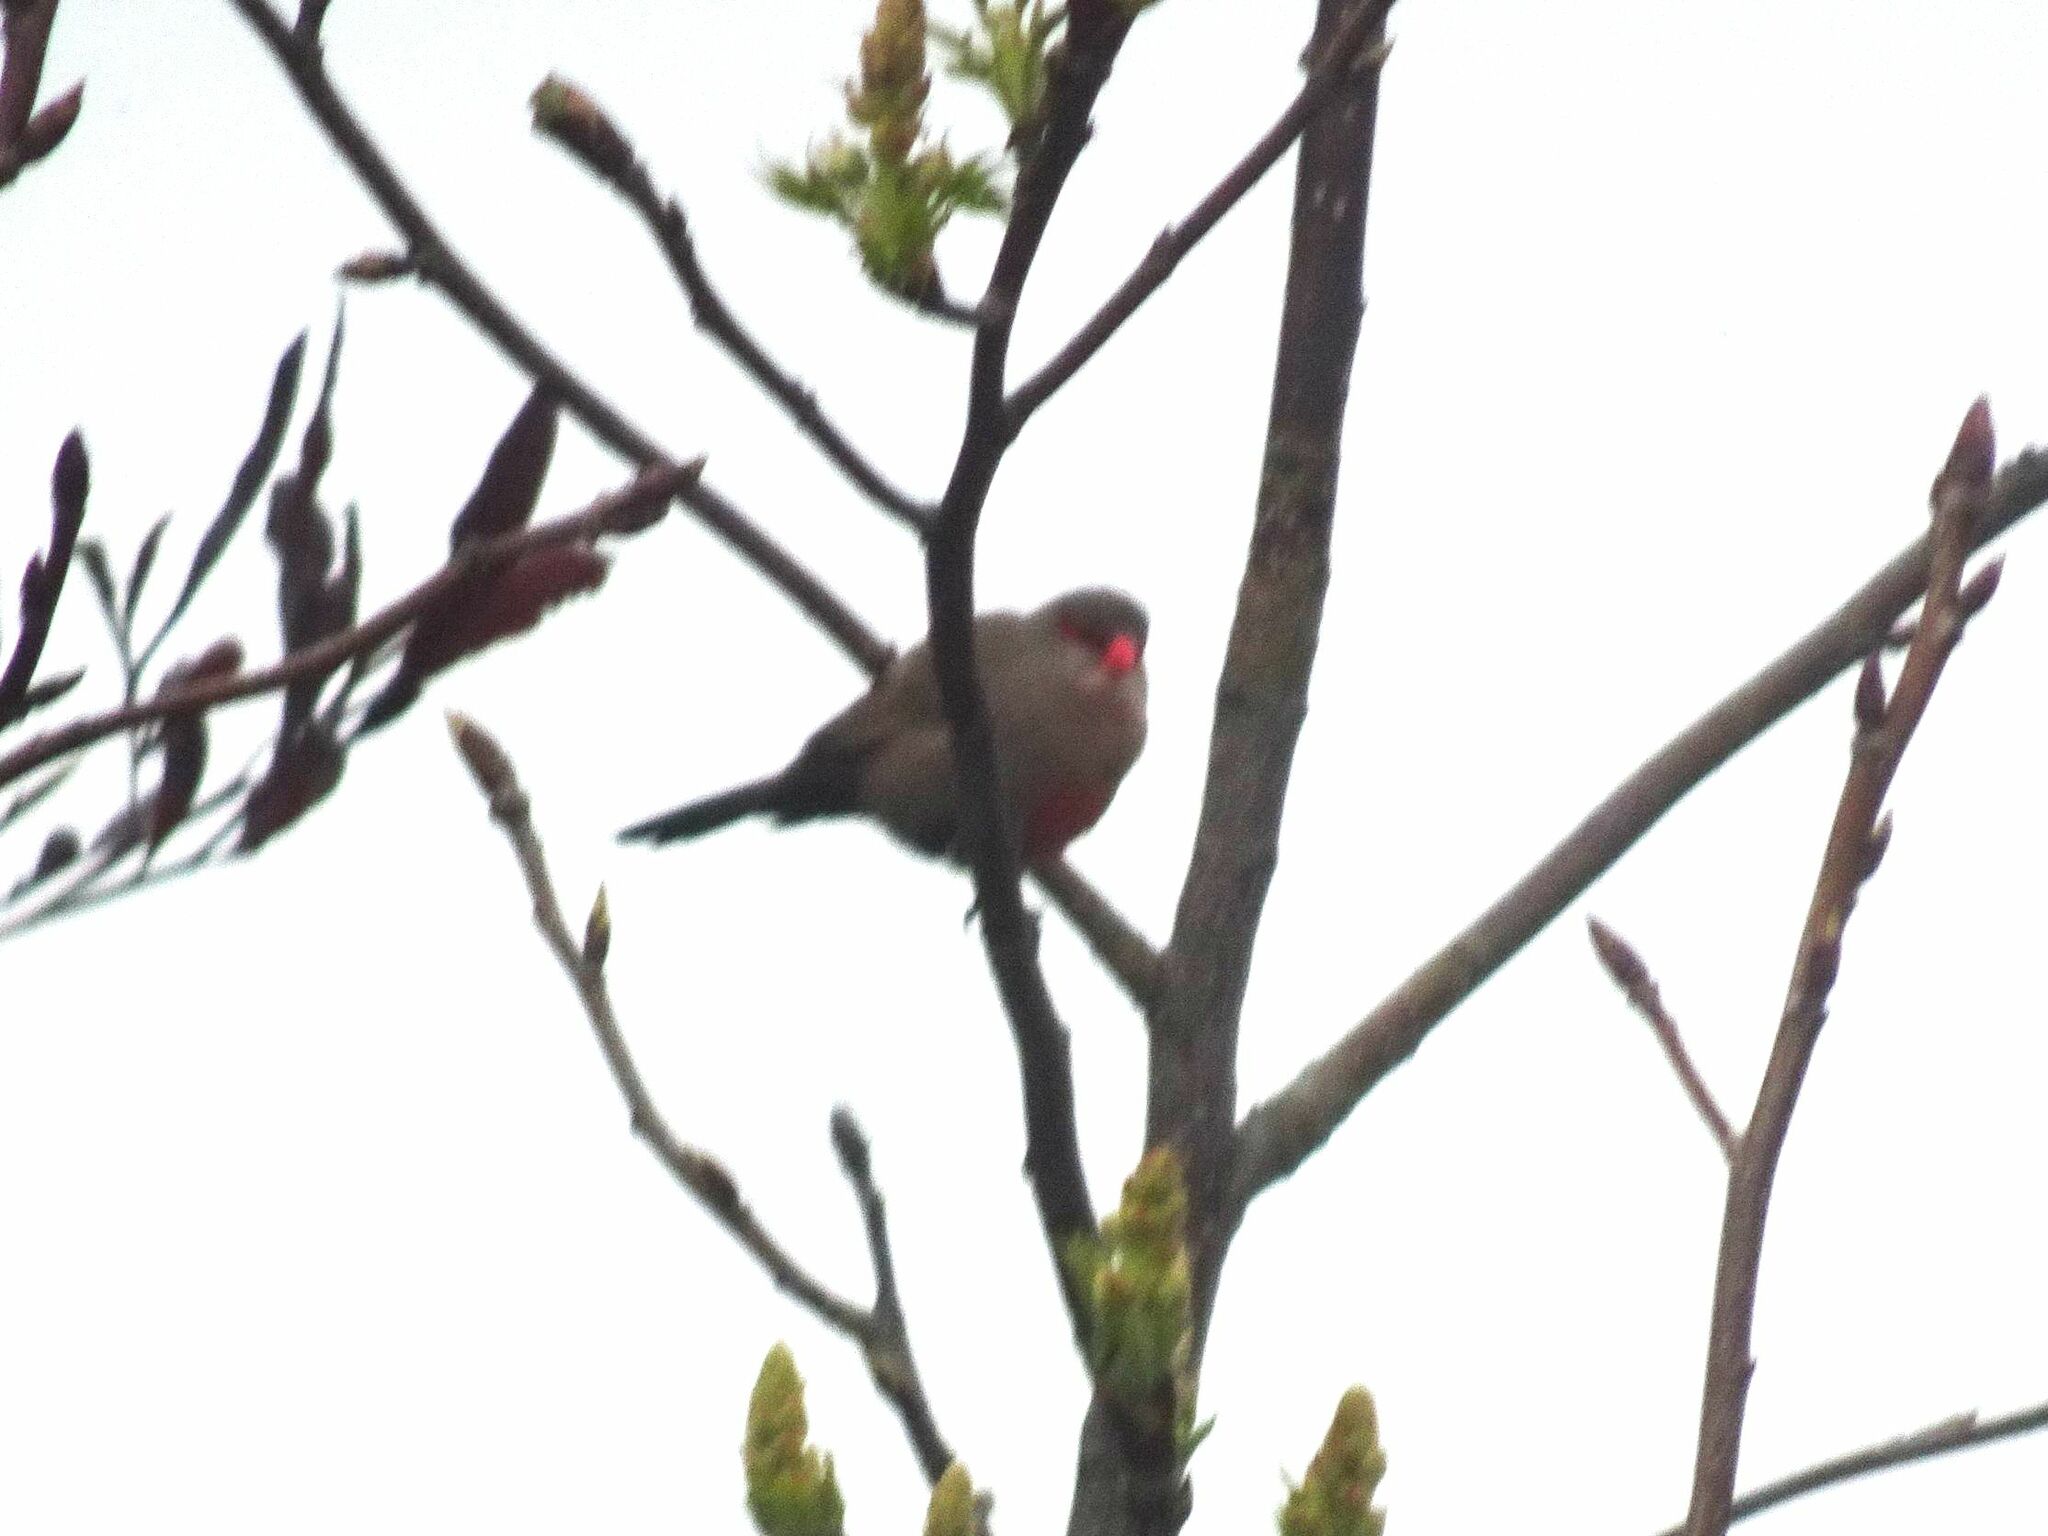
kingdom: Animalia
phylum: Chordata
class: Aves
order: Passeriformes
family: Estrildidae
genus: Estrilda
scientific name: Estrilda astrild
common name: Common waxbill
